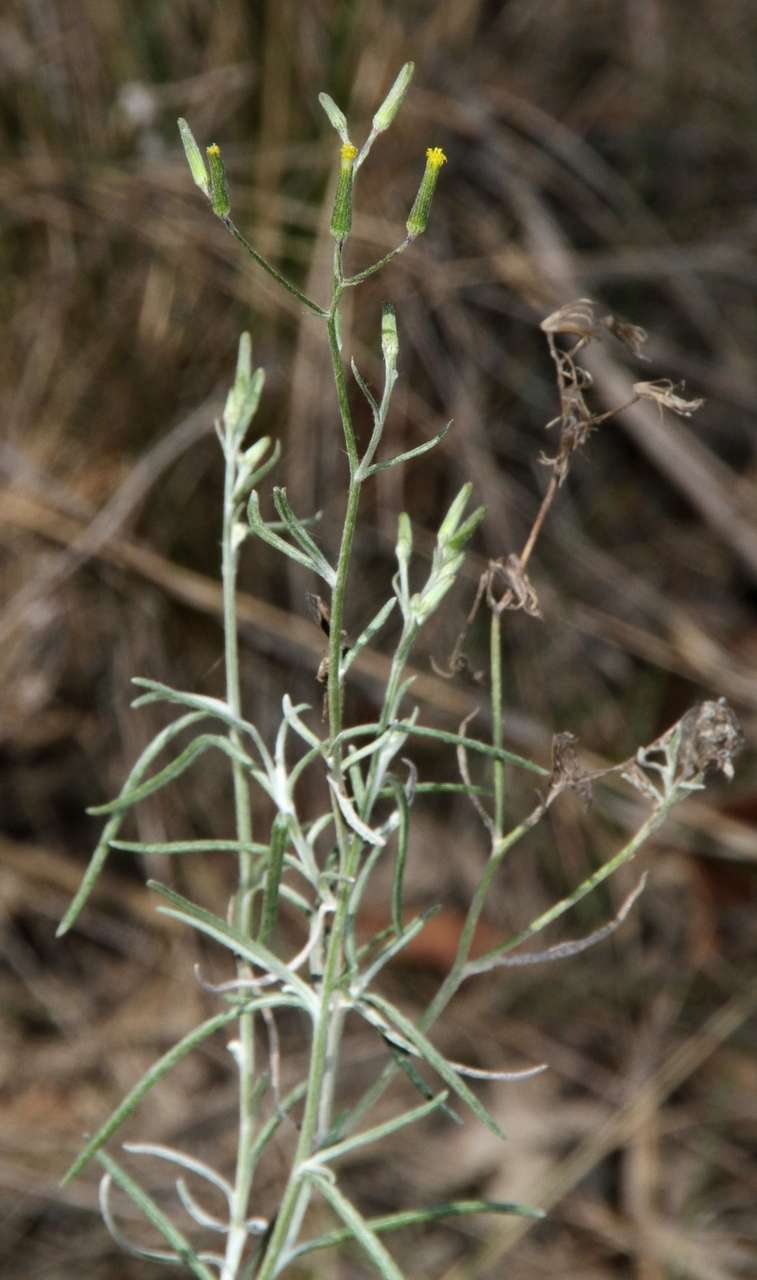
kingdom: Plantae
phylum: Tracheophyta
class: Magnoliopsida
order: Asterales
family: Asteraceae
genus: Senecio
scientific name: Senecio quadridentatus
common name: Cotton fireweed
